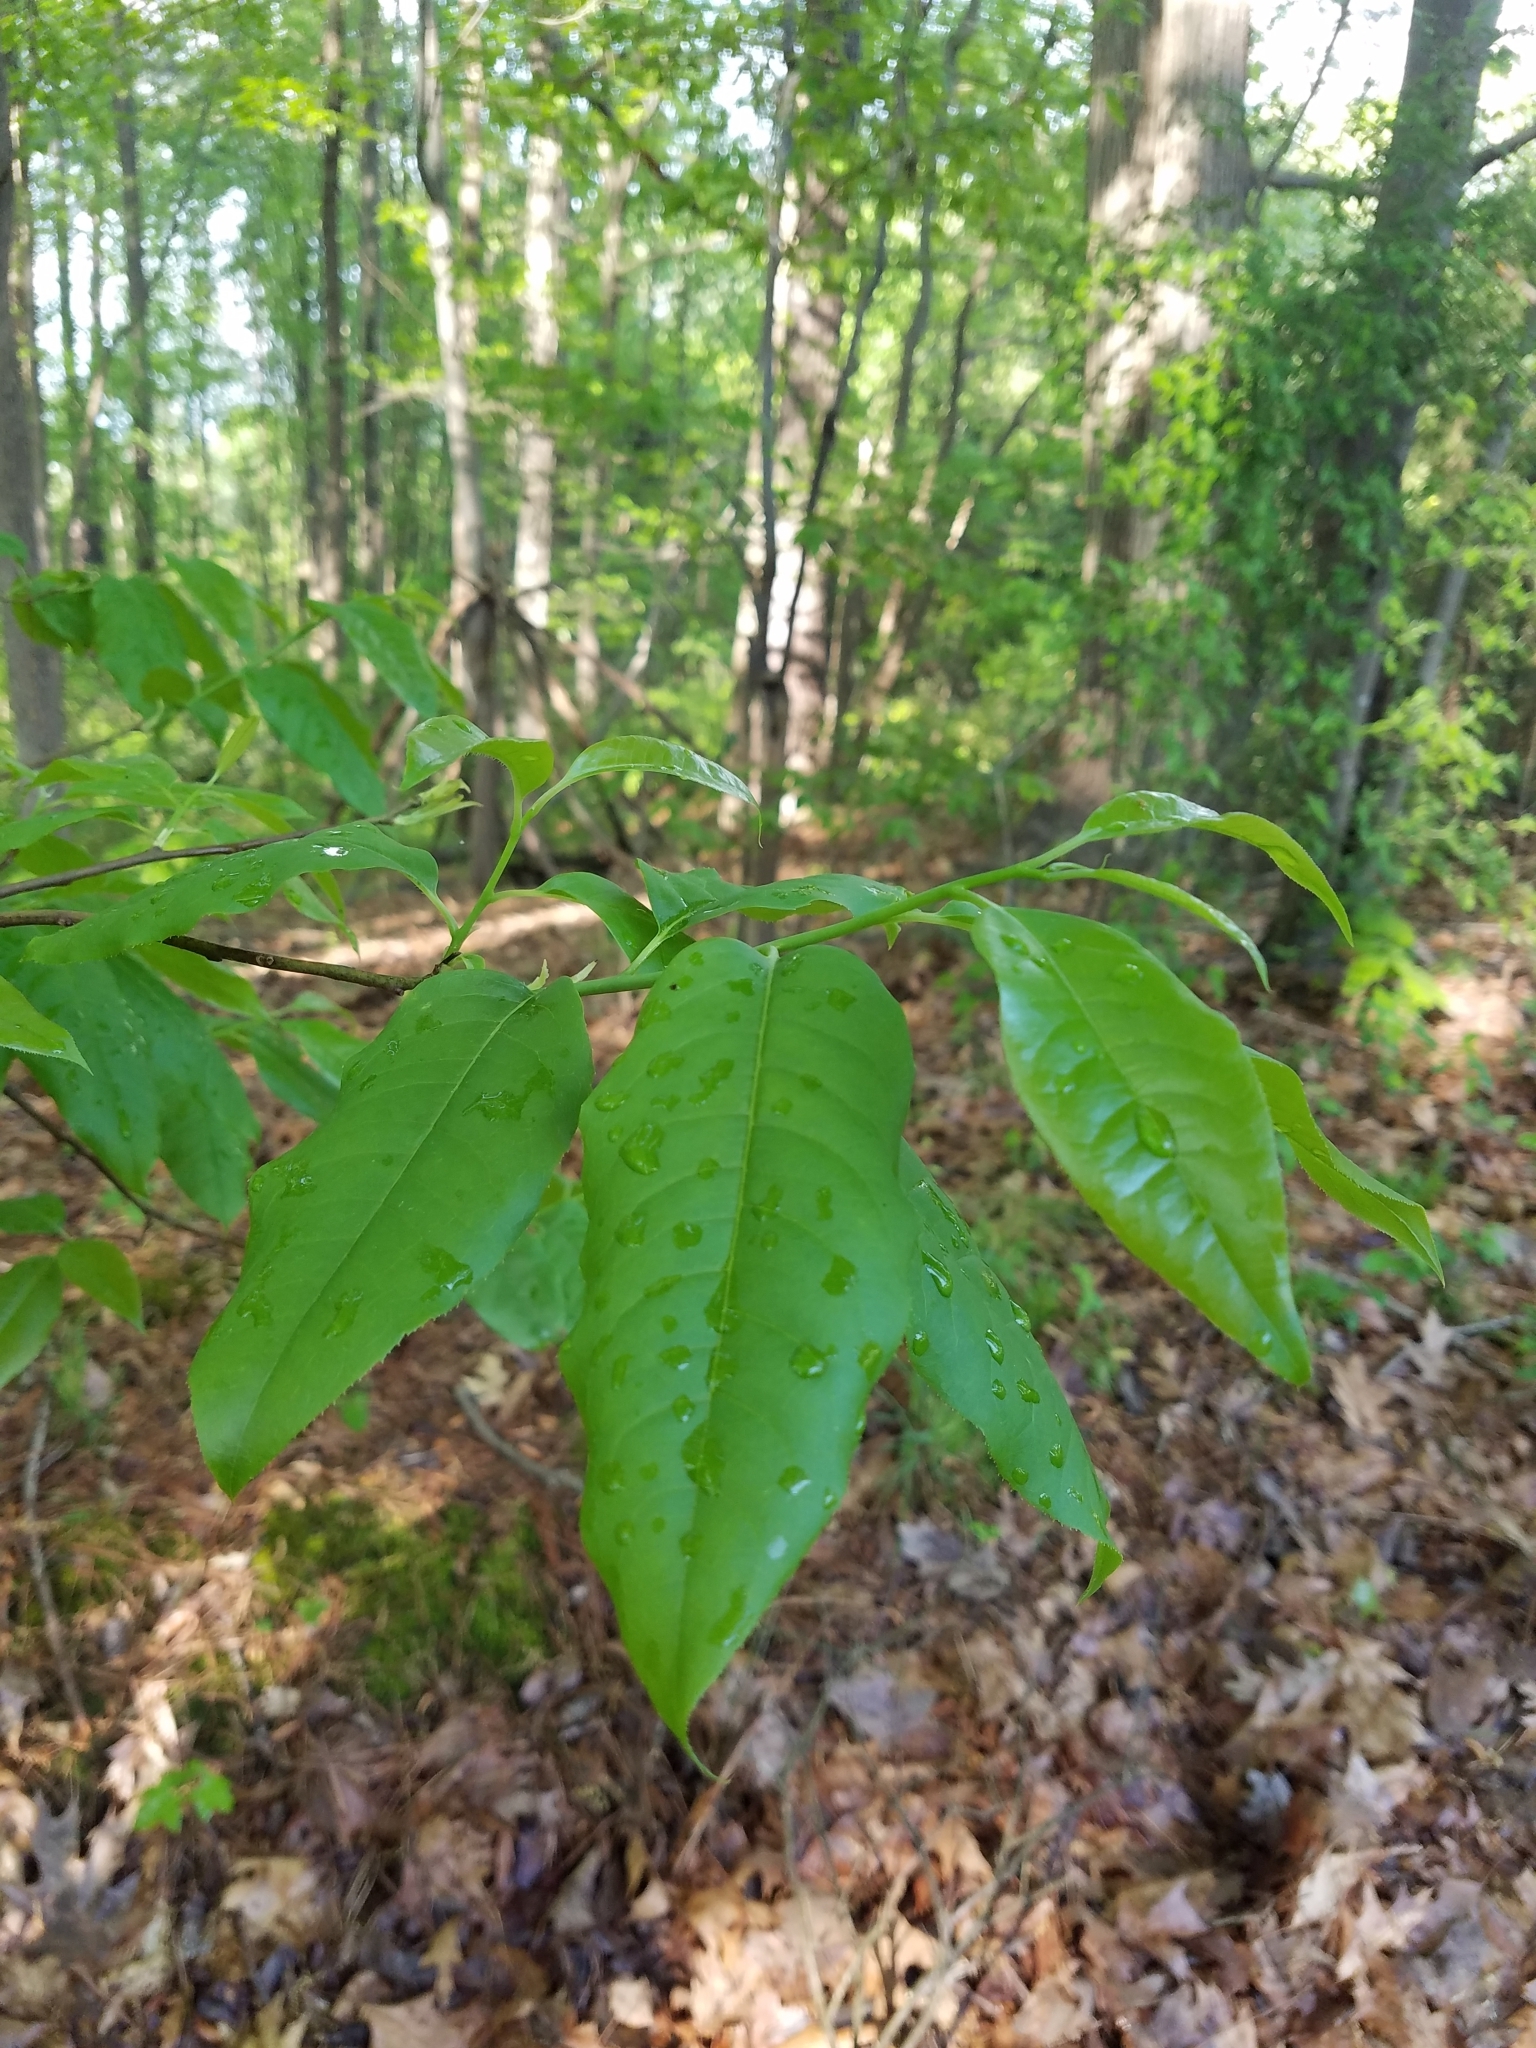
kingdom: Plantae
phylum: Tracheophyta
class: Magnoliopsida
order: Ericales
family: Ericaceae
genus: Oxydendrum
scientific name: Oxydendrum arboreum
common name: Sourwood
